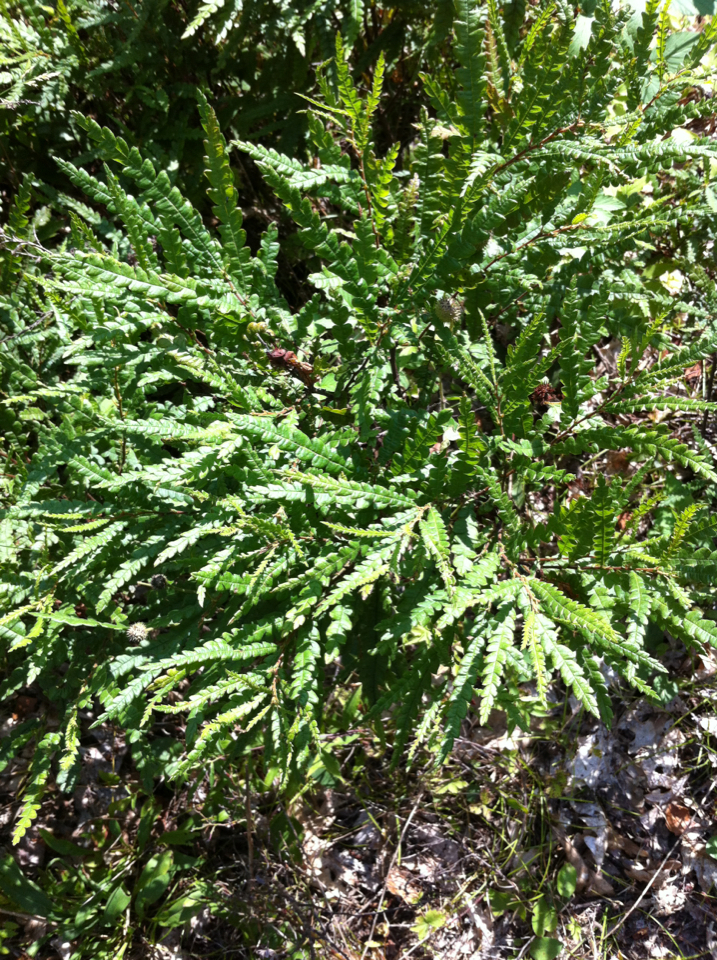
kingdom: Plantae
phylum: Tracheophyta
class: Magnoliopsida
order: Fagales
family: Myricaceae
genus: Comptonia
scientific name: Comptonia peregrina
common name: Sweet-fern
